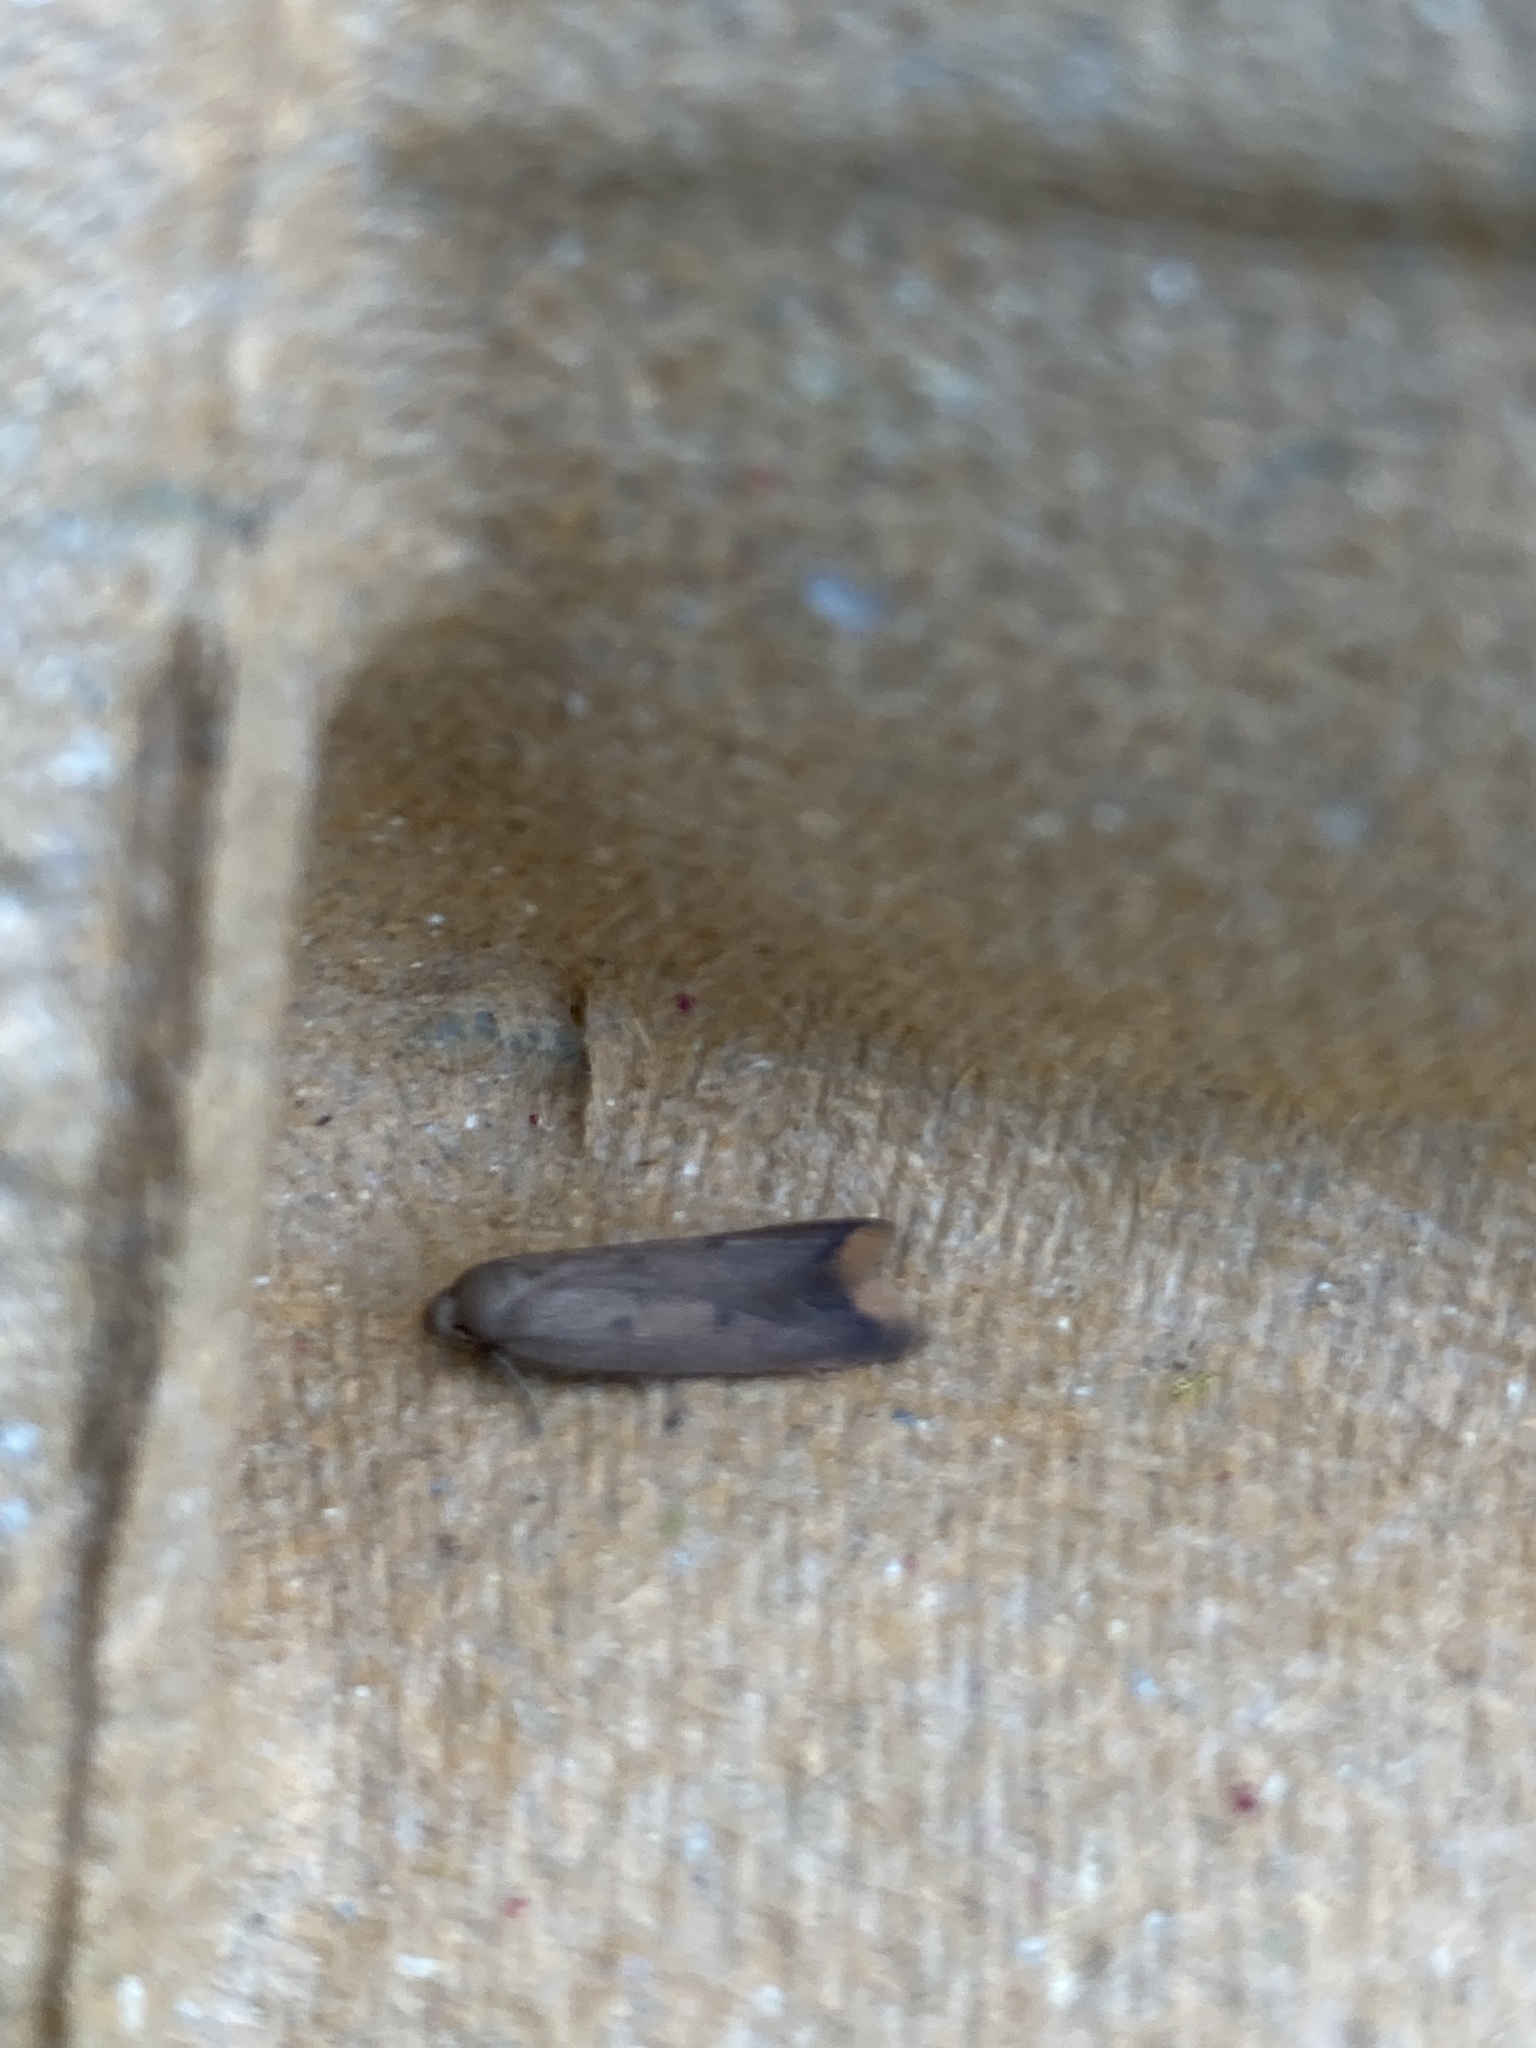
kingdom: Animalia
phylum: Arthropoda
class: Insecta
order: Lepidoptera
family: Oecophoridae
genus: Tachystola
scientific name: Tachystola acroxantha
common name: Ruddy streak
